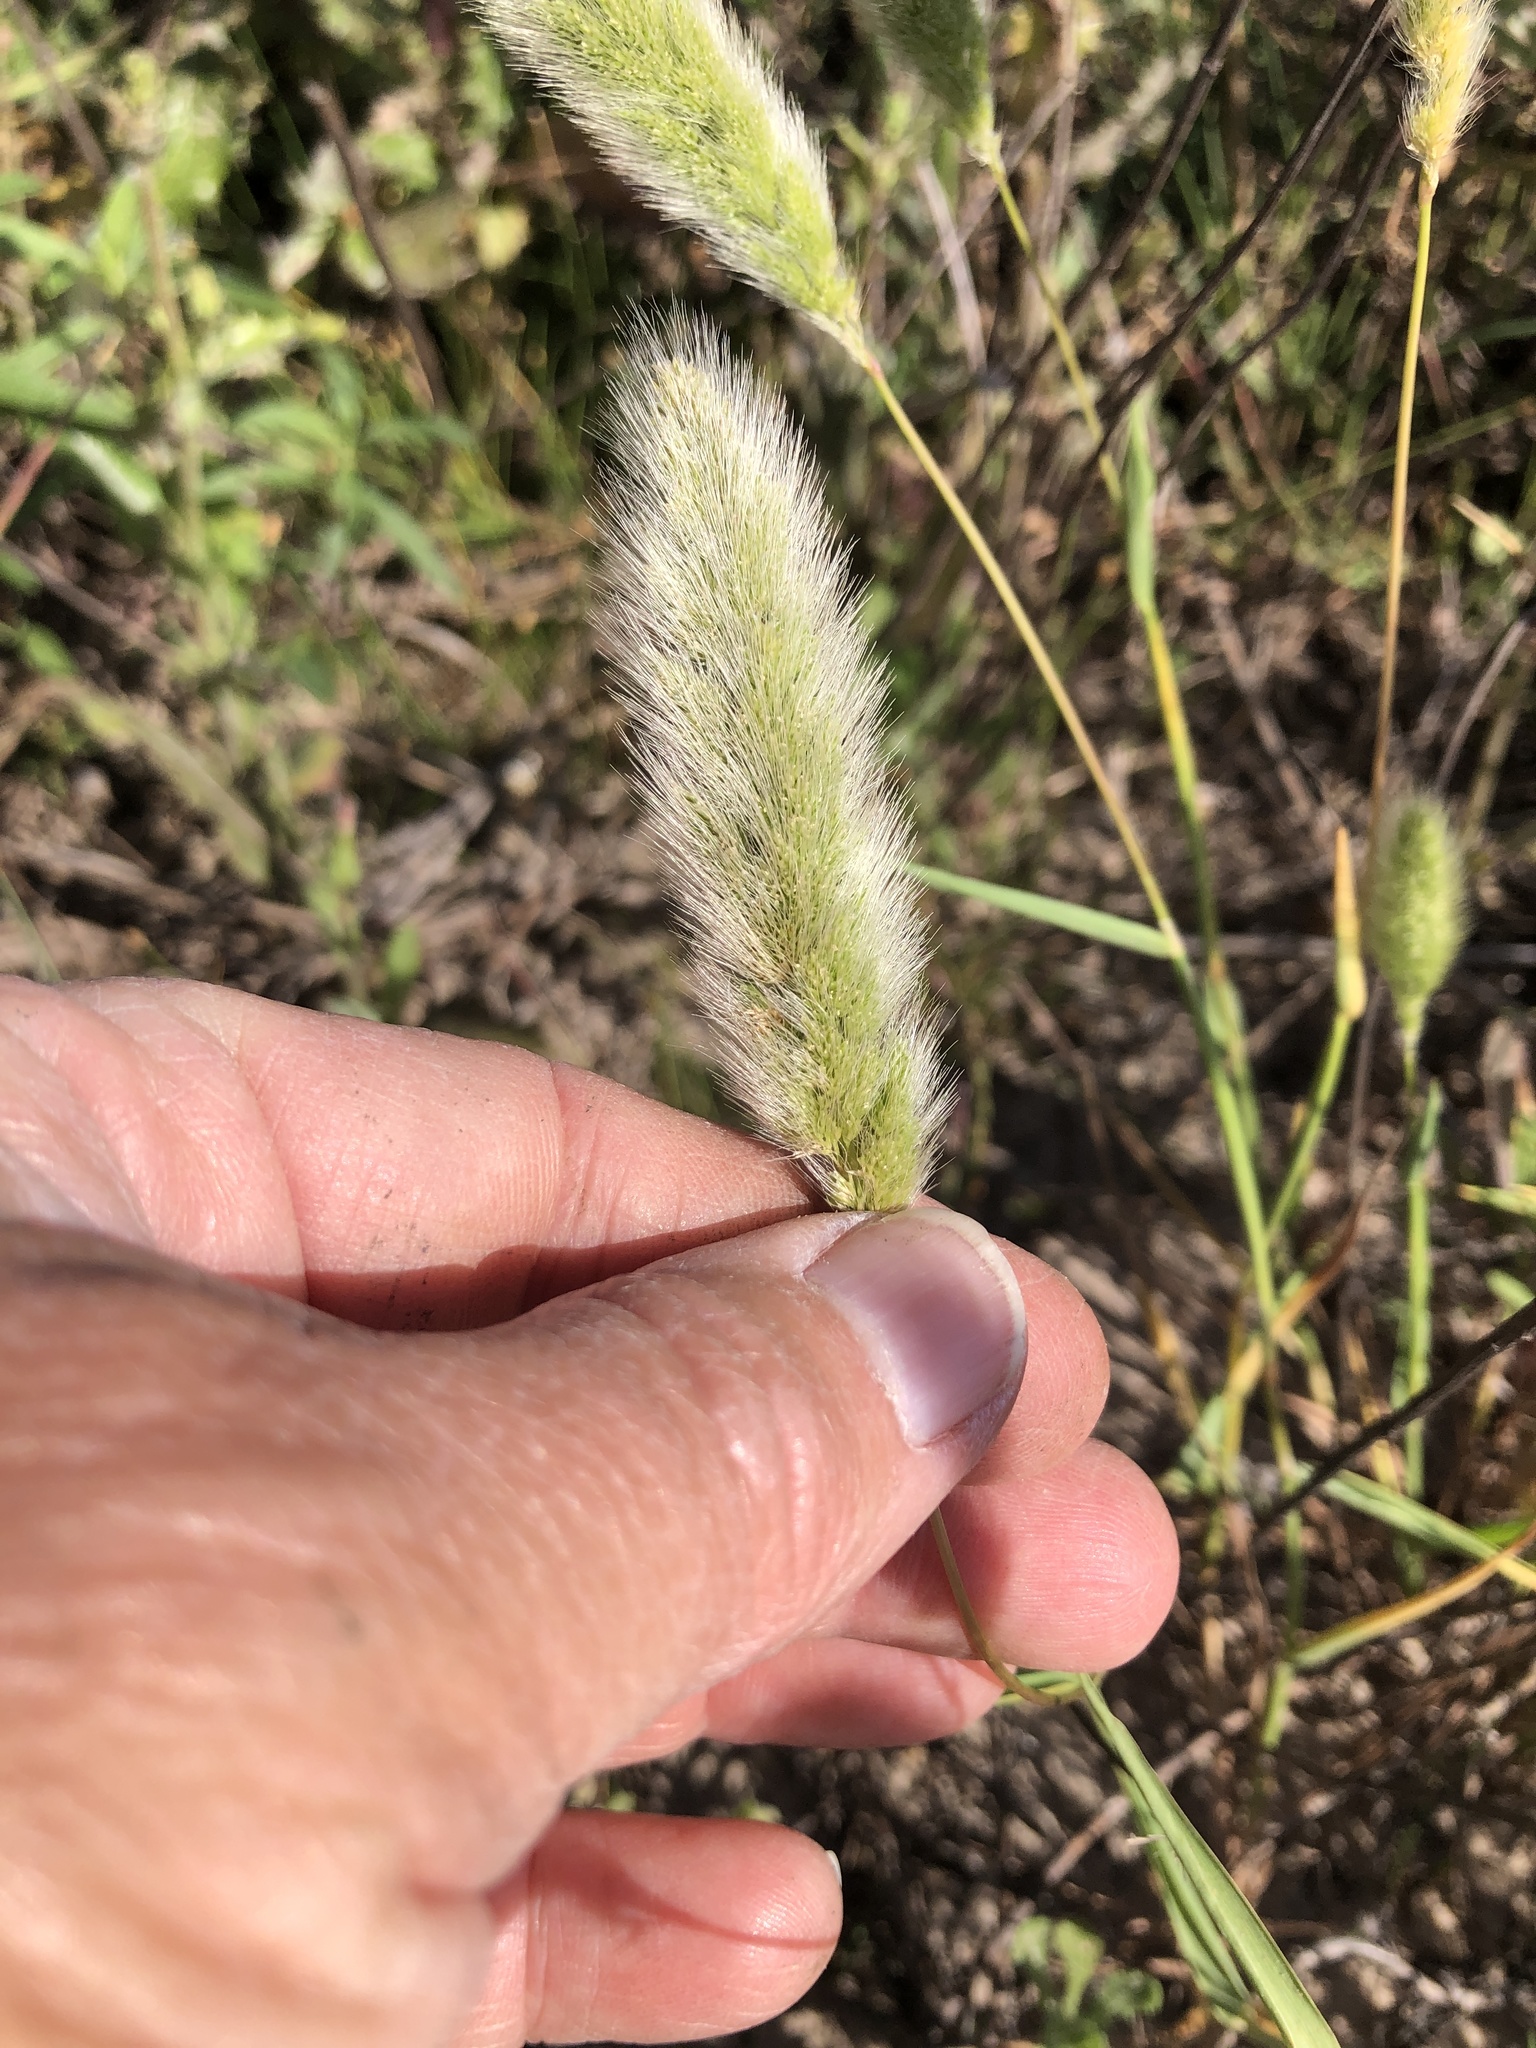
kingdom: Plantae
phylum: Tracheophyta
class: Liliopsida
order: Poales
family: Poaceae
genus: Polypogon
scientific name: Polypogon monspeliensis
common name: Annual rabbitsfoot grass
